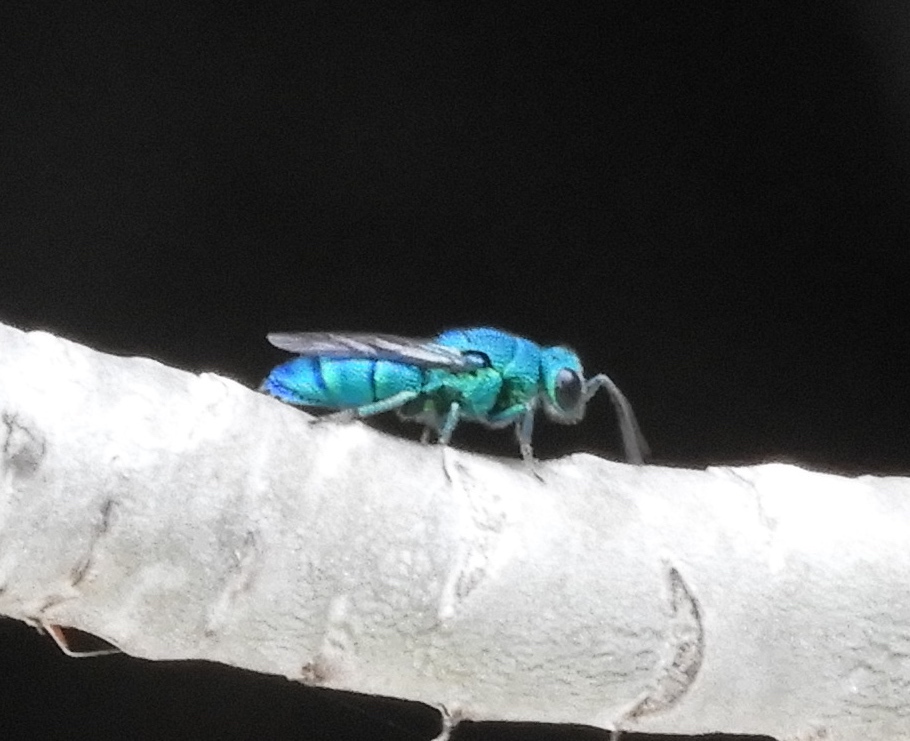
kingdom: Animalia
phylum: Arthropoda
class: Insecta
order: Hymenoptera
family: Chrysididae
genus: Chrysis
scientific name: Chrysis
